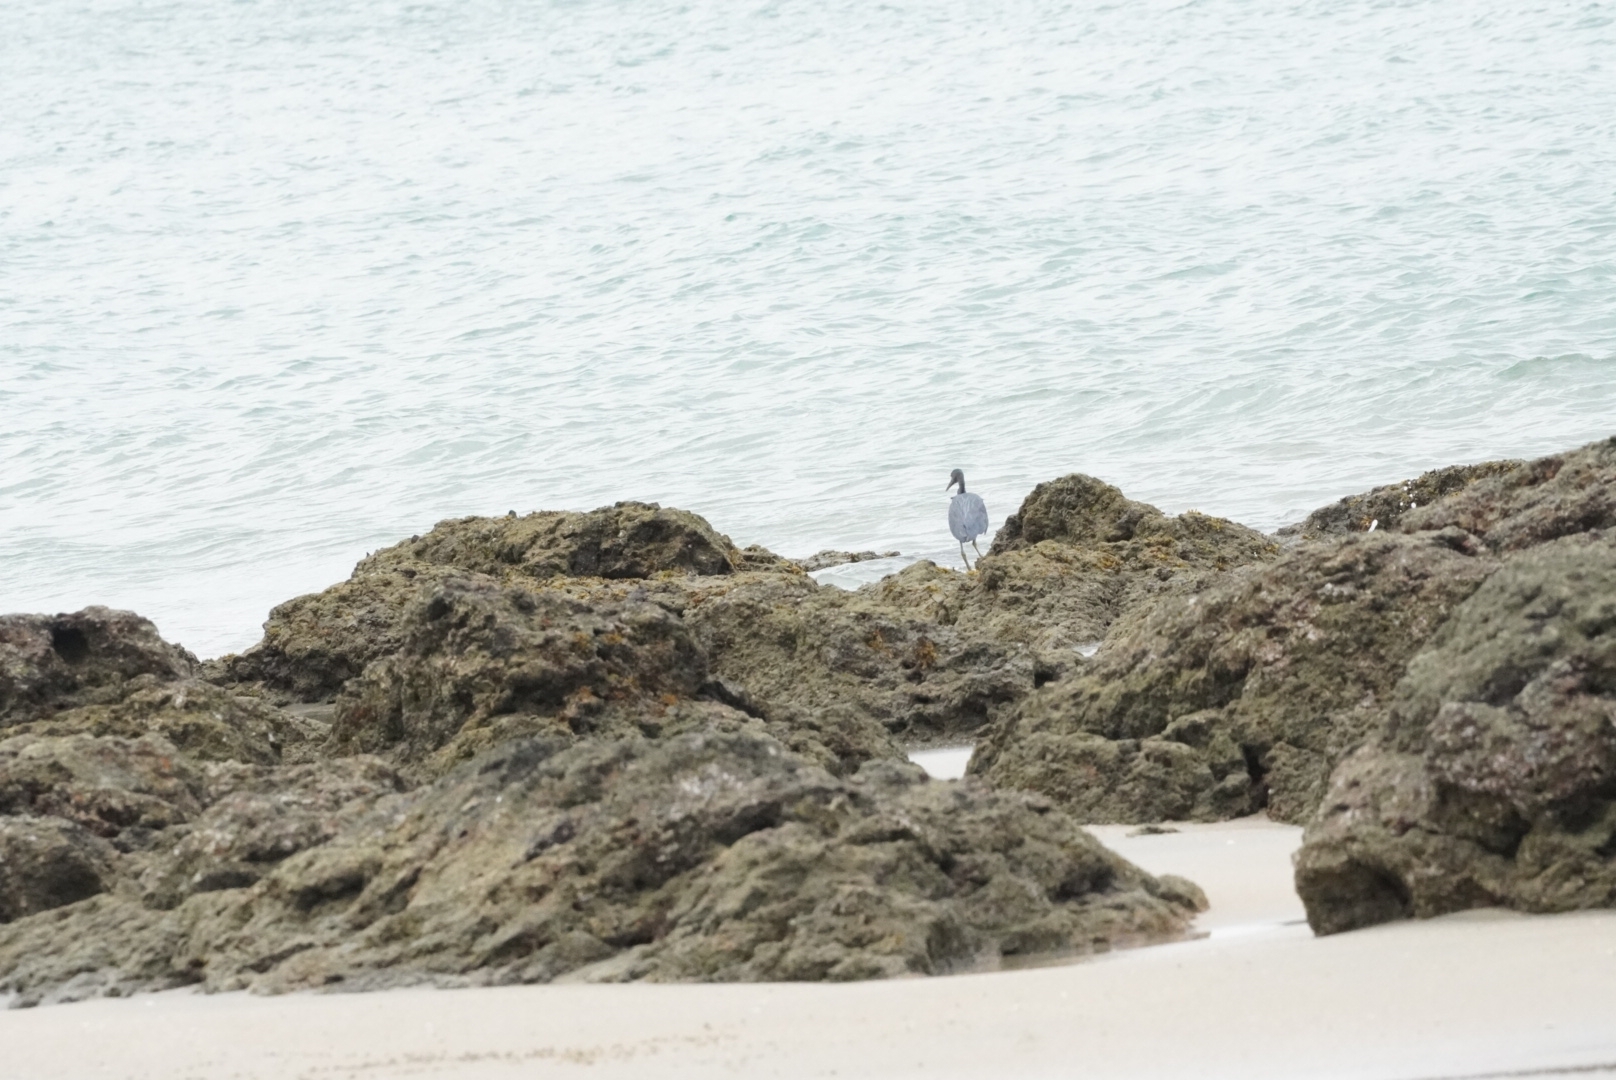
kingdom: Animalia
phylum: Chordata
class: Aves
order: Pelecaniformes
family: Ardeidae
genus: Egretta
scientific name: Egretta sacra
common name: Pacific reef heron
